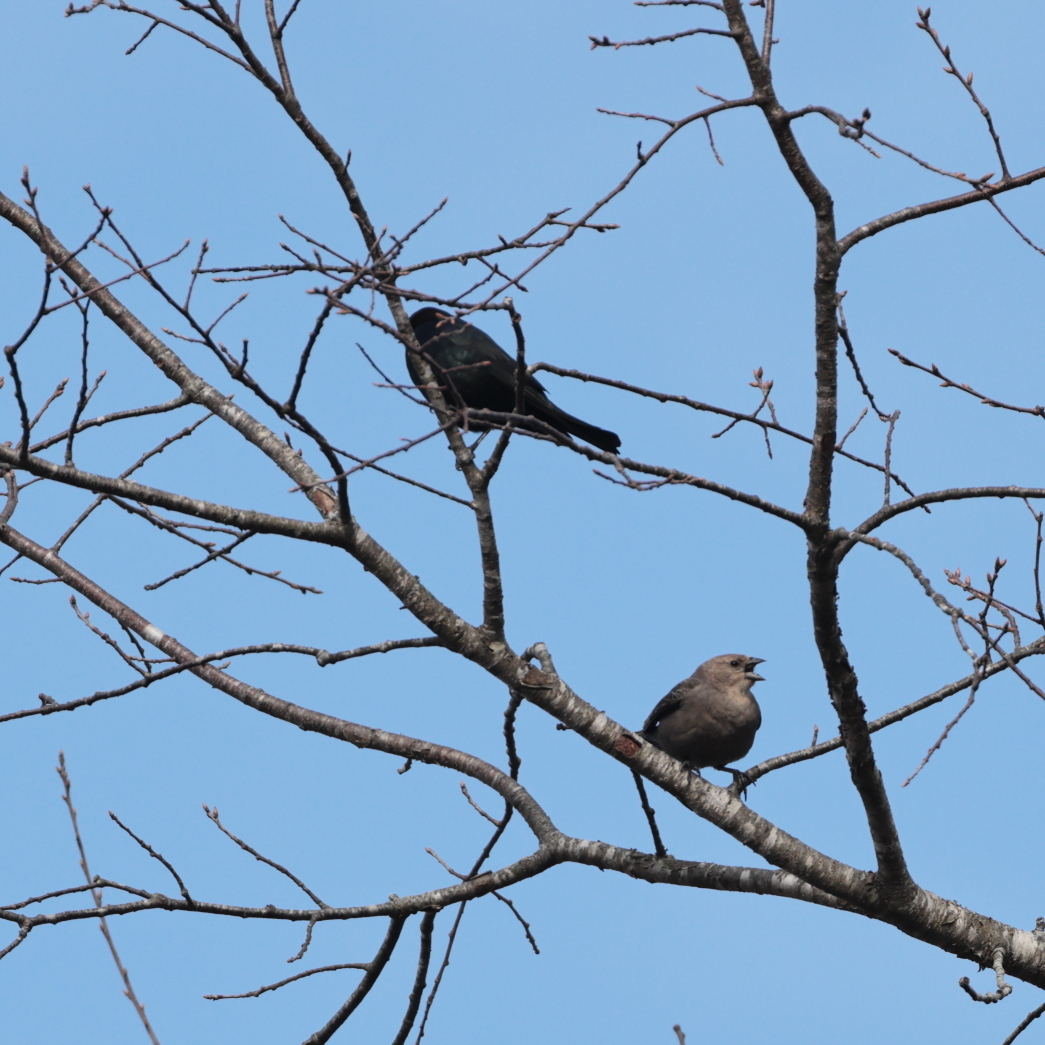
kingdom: Animalia
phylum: Chordata
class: Aves
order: Passeriformes
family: Icteridae
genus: Molothrus
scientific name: Molothrus ater
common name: Brown-headed cowbird
